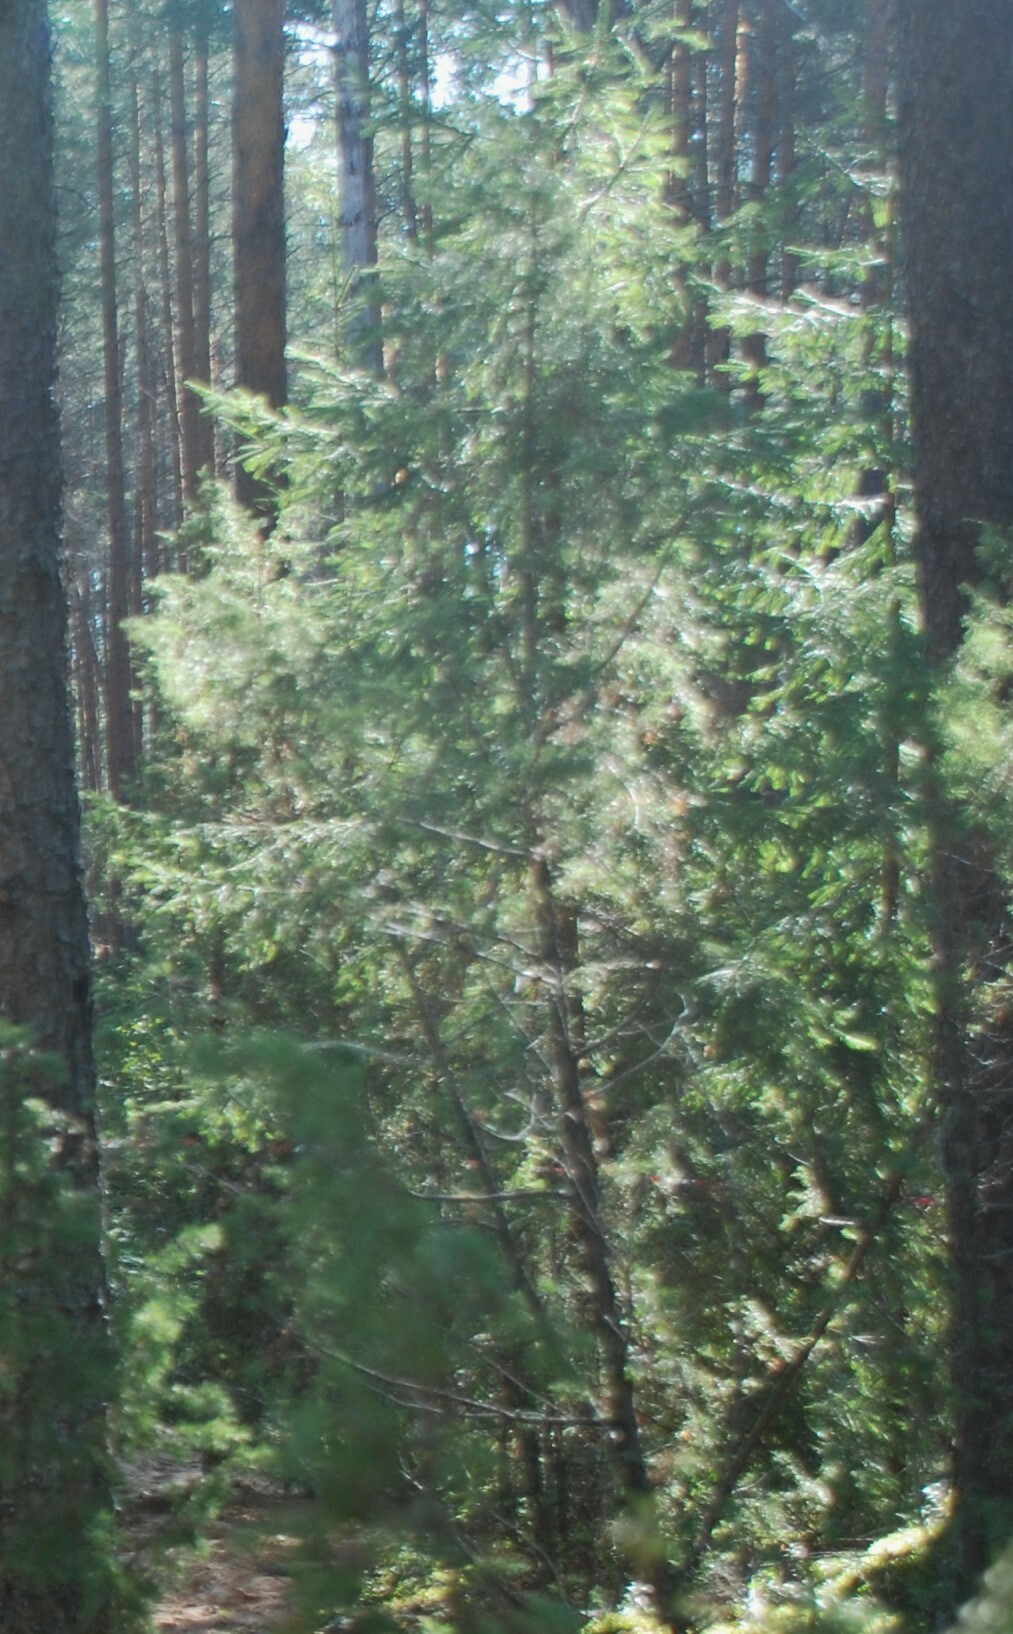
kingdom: Plantae
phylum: Tracheophyta
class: Pinopsida
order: Pinales
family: Cupressaceae
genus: Juniperus
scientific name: Juniperus communis
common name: Common juniper
